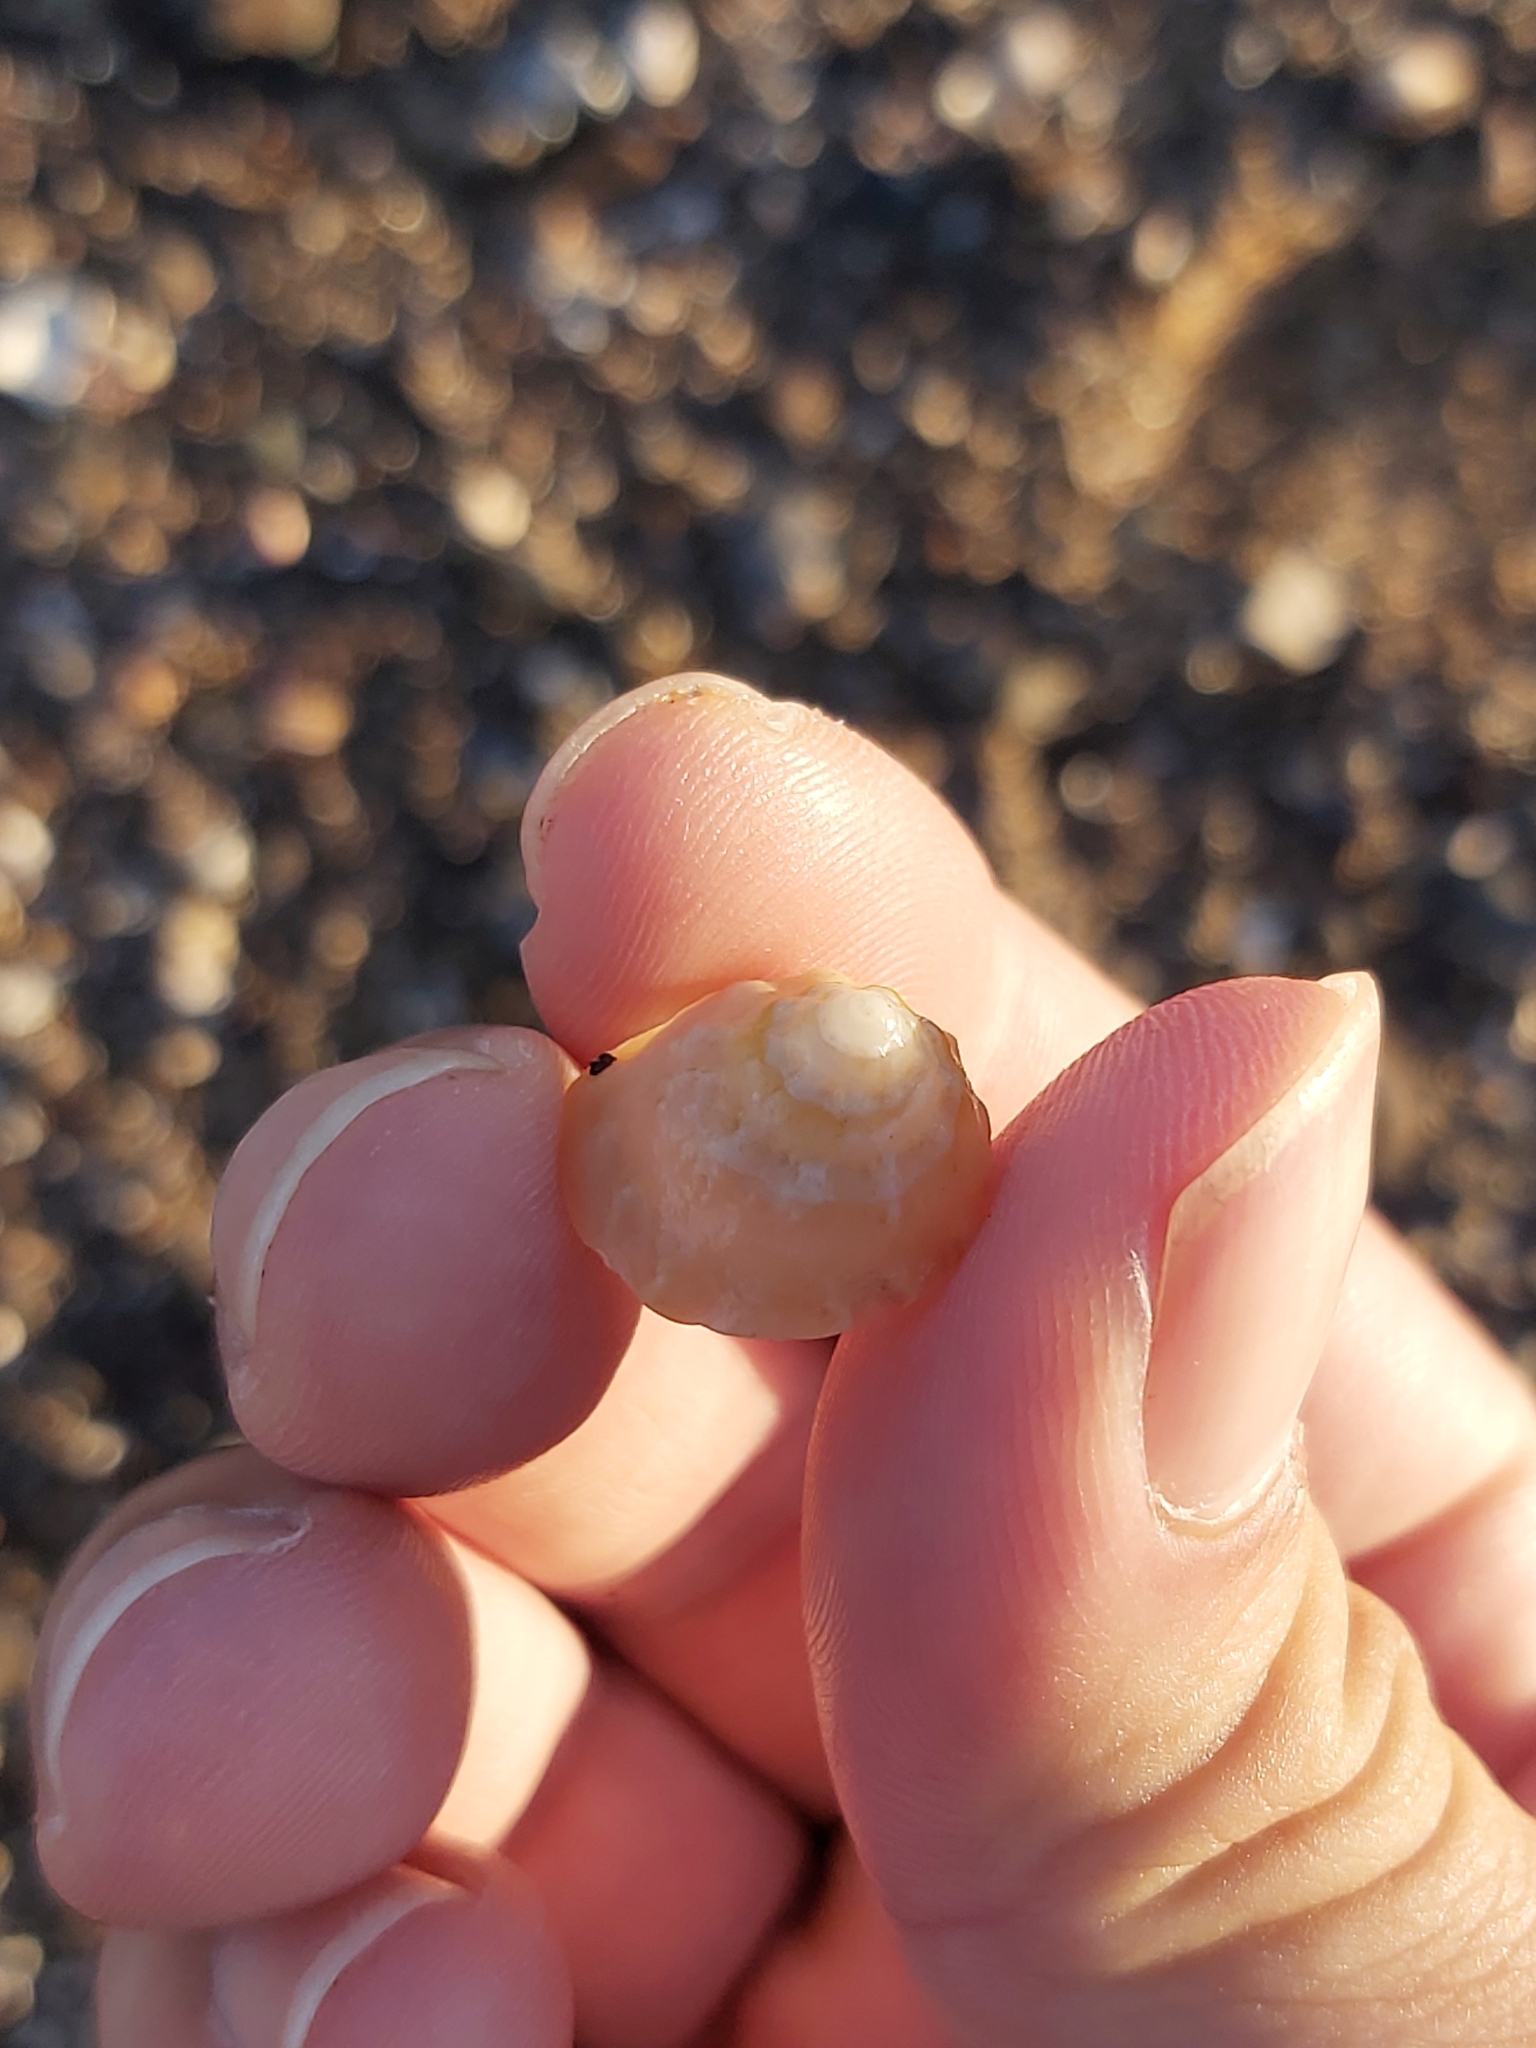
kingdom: Animalia
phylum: Mollusca
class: Gastropoda
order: Trochida
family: Turbinidae
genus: Astralium
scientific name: Astralium tentoriiforme
